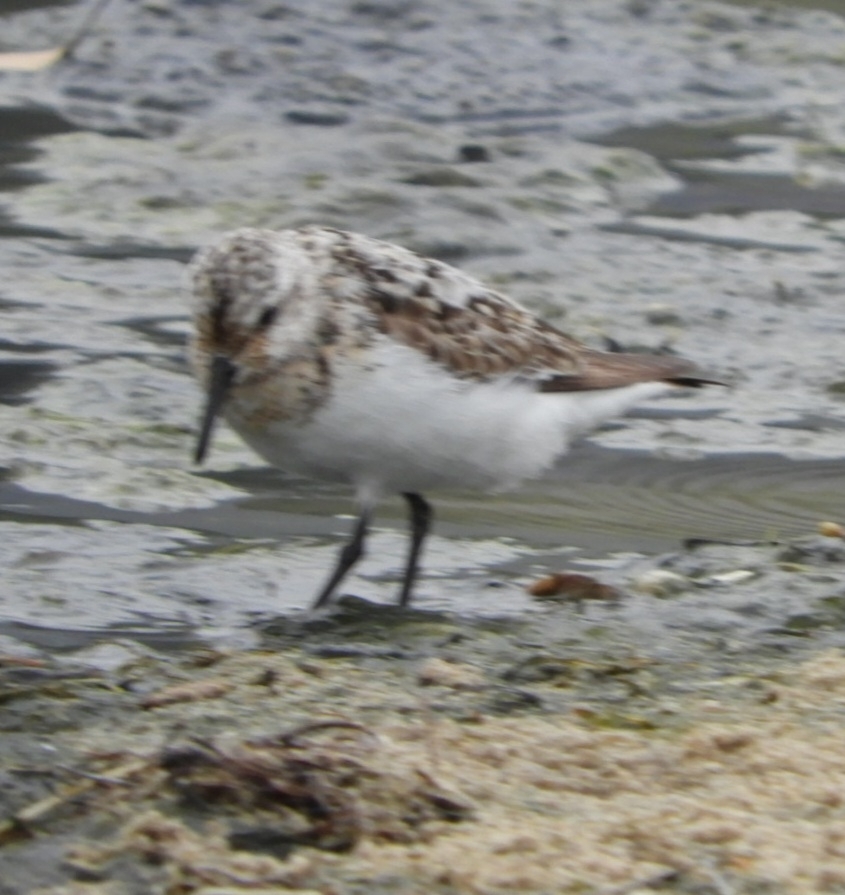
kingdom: Animalia
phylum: Chordata
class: Aves
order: Charadriiformes
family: Scolopacidae
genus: Calidris
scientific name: Calidris alba
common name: Sanderling
